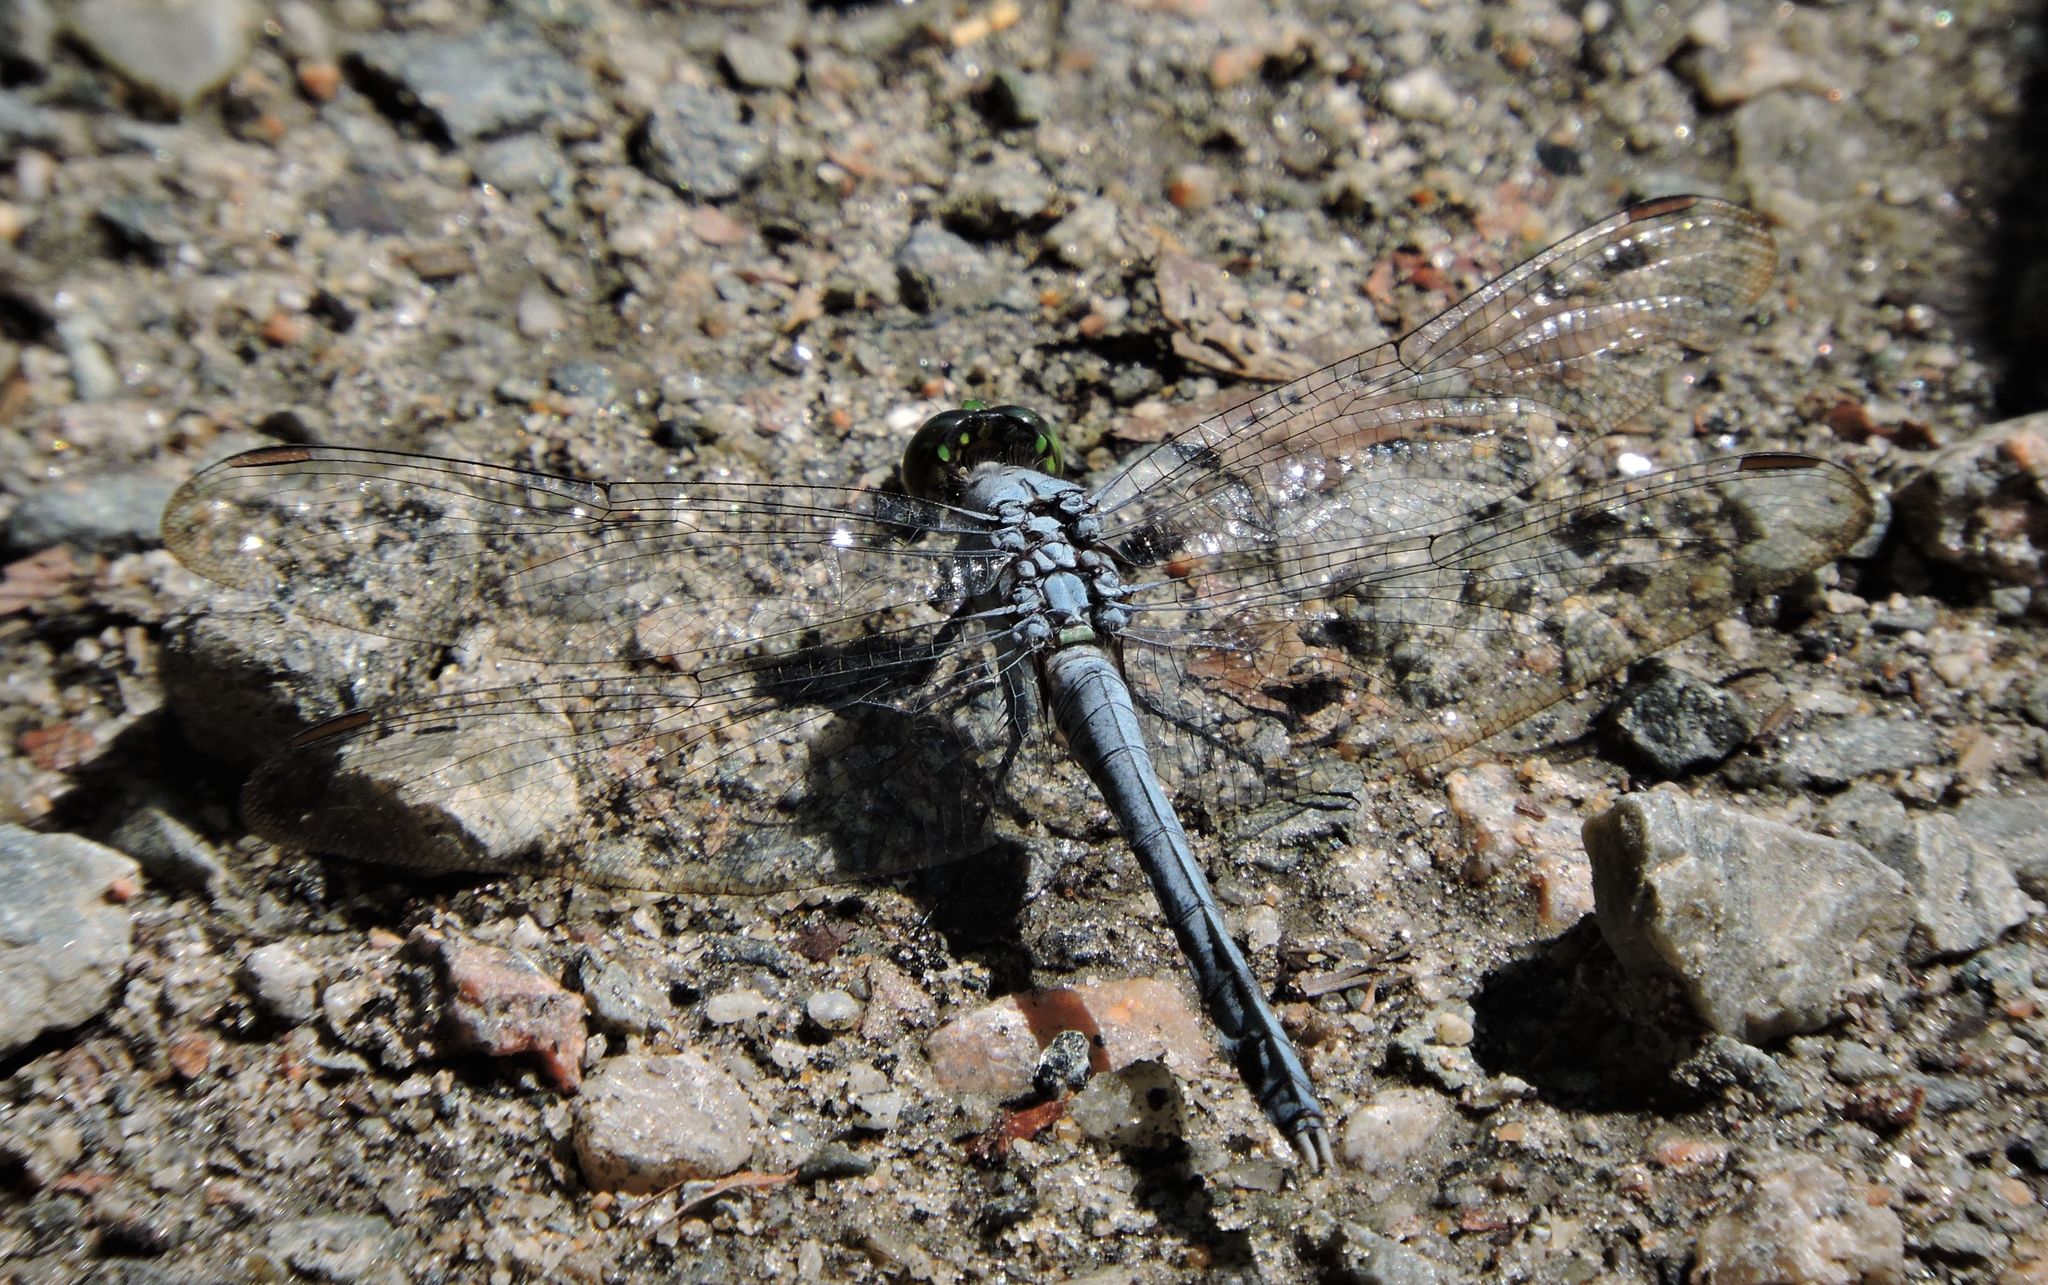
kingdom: Animalia
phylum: Arthropoda
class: Insecta
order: Odonata
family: Libellulidae
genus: Erythemis
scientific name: Erythemis simplicicollis
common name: Eastern pondhawk
